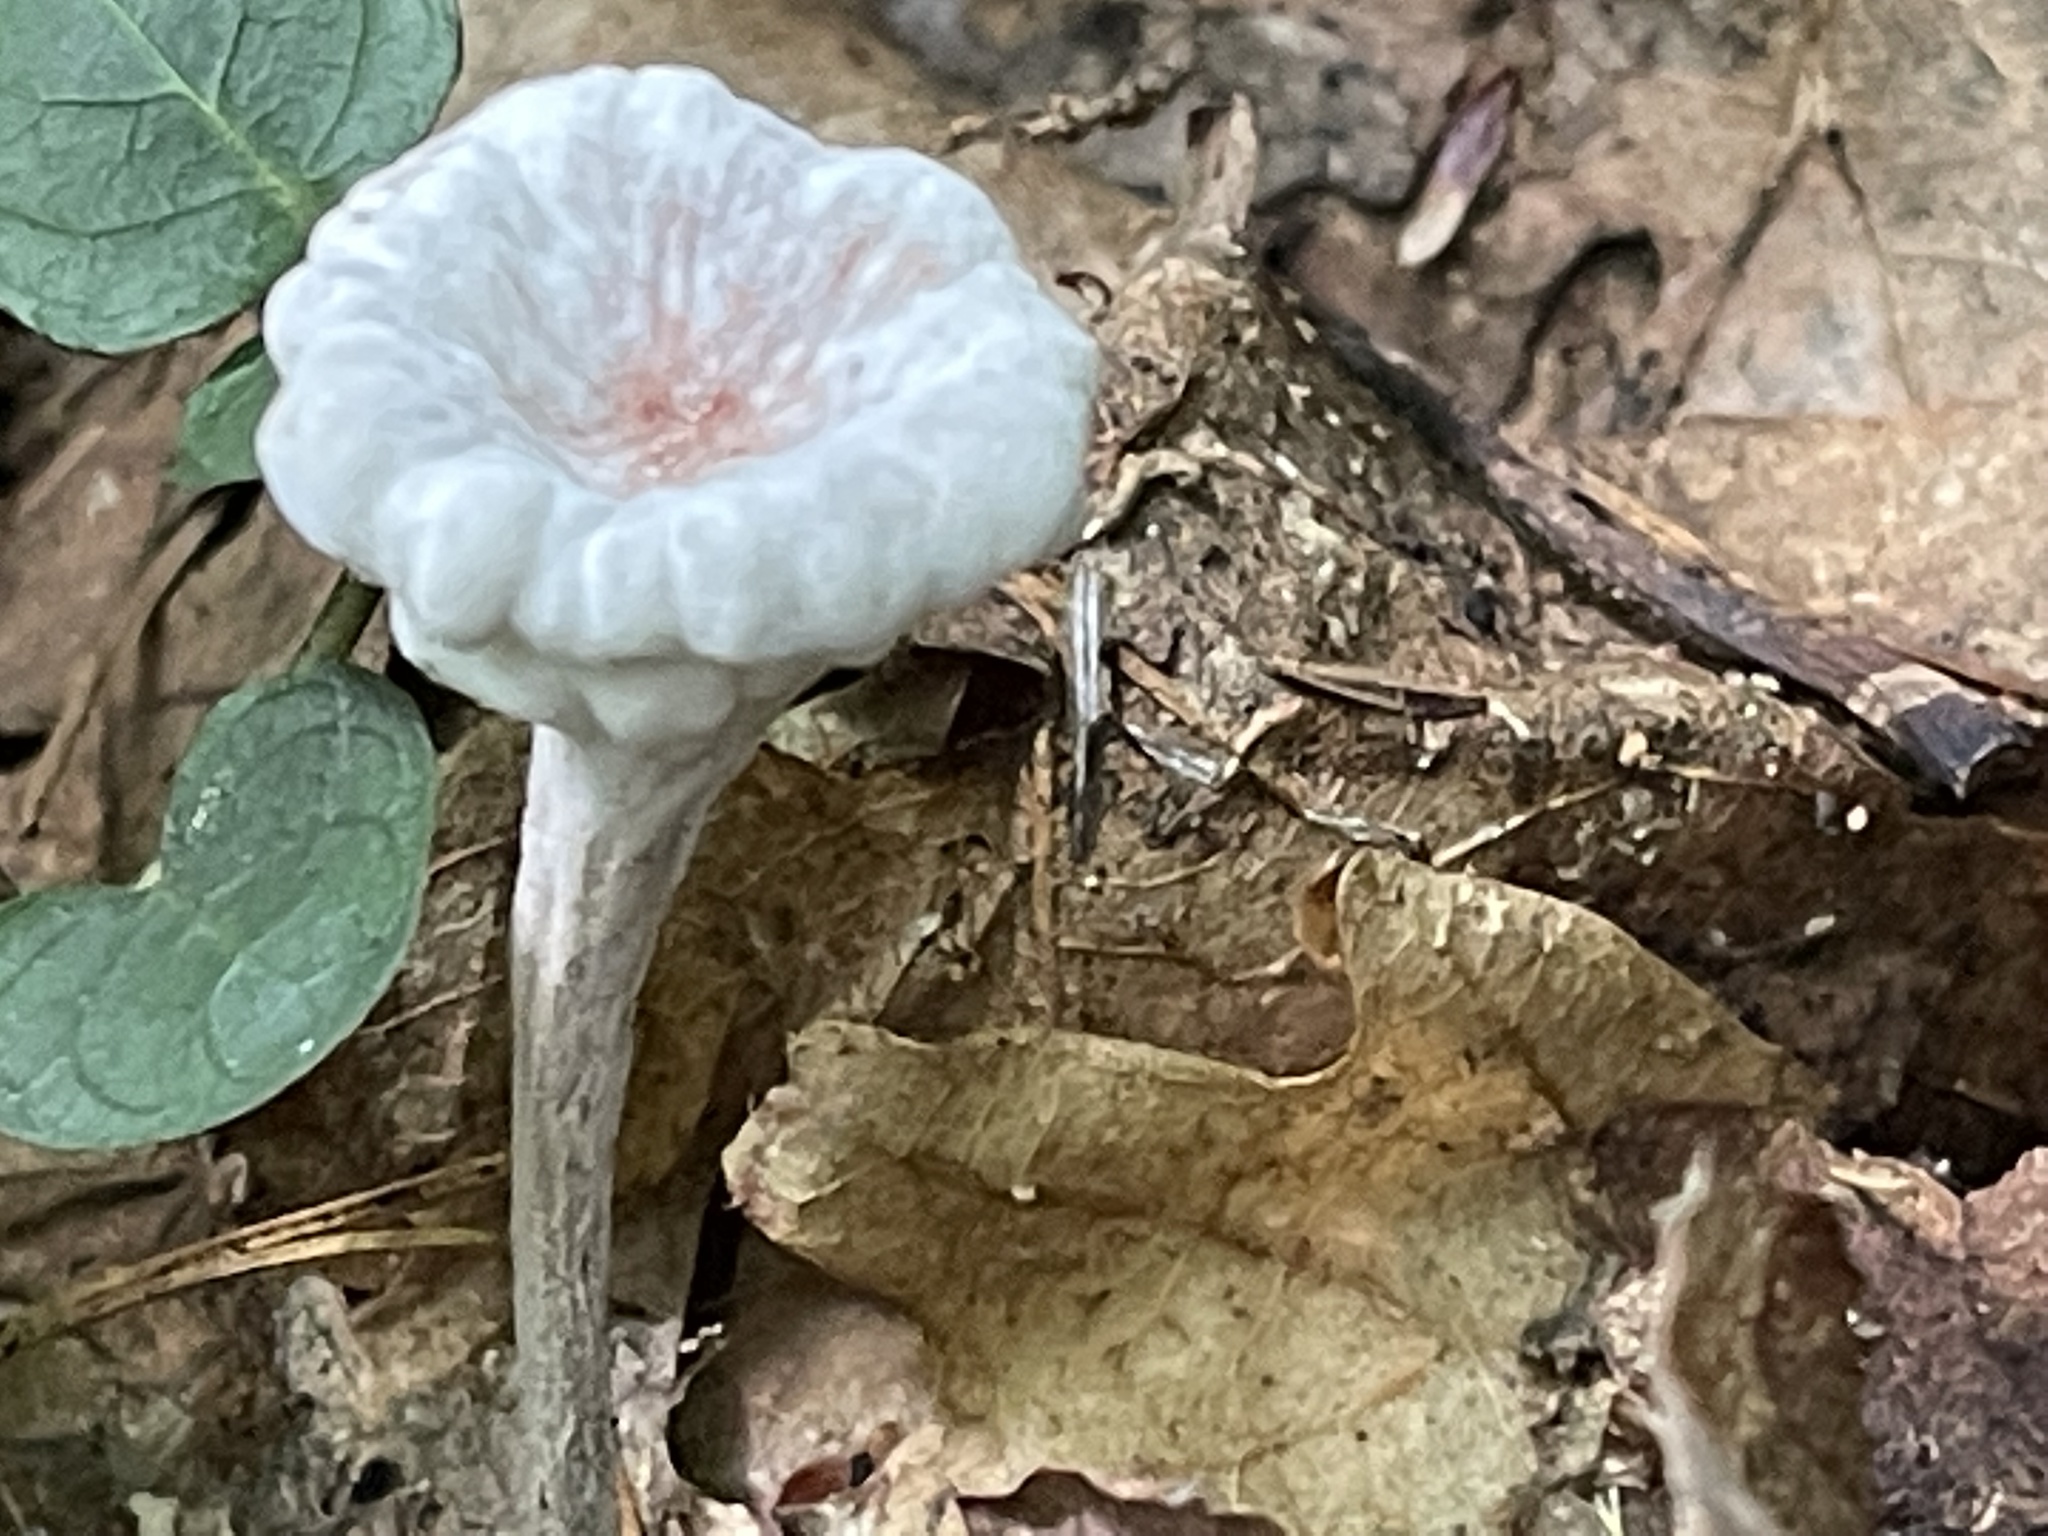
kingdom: Fungi
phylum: Basidiomycota
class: Agaricomycetes
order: Agaricales
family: Entolomataceae
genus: Entoloma
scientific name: Entoloma abortivum
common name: Aborted entoloma
